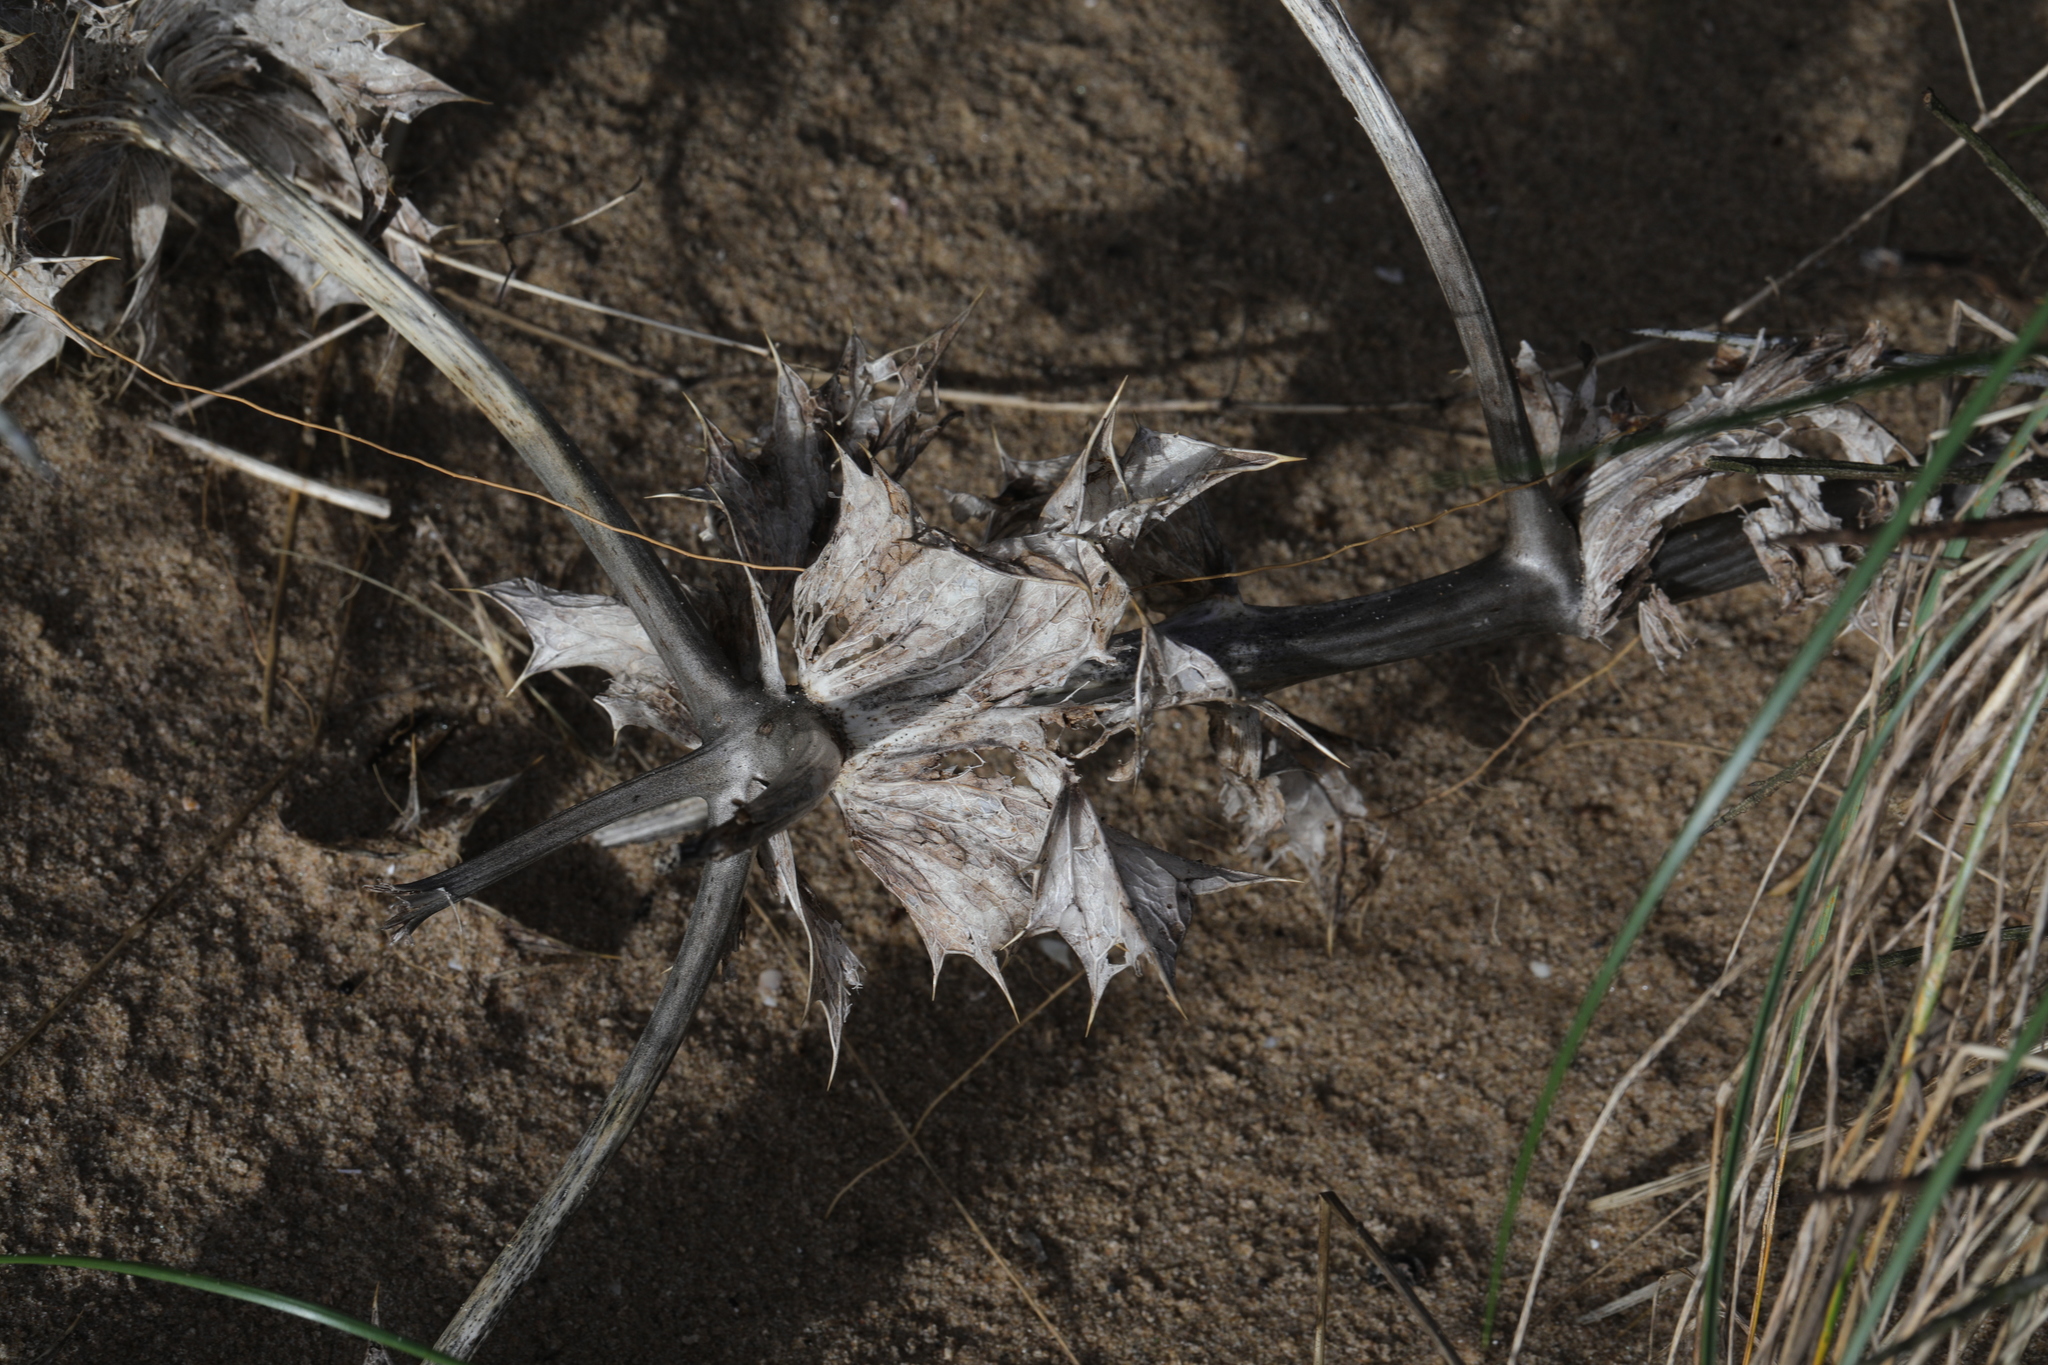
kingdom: Plantae
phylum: Tracheophyta
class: Magnoliopsida
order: Apiales
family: Apiaceae
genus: Eryngium
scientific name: Eryngium maritimum
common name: Sea-holly
